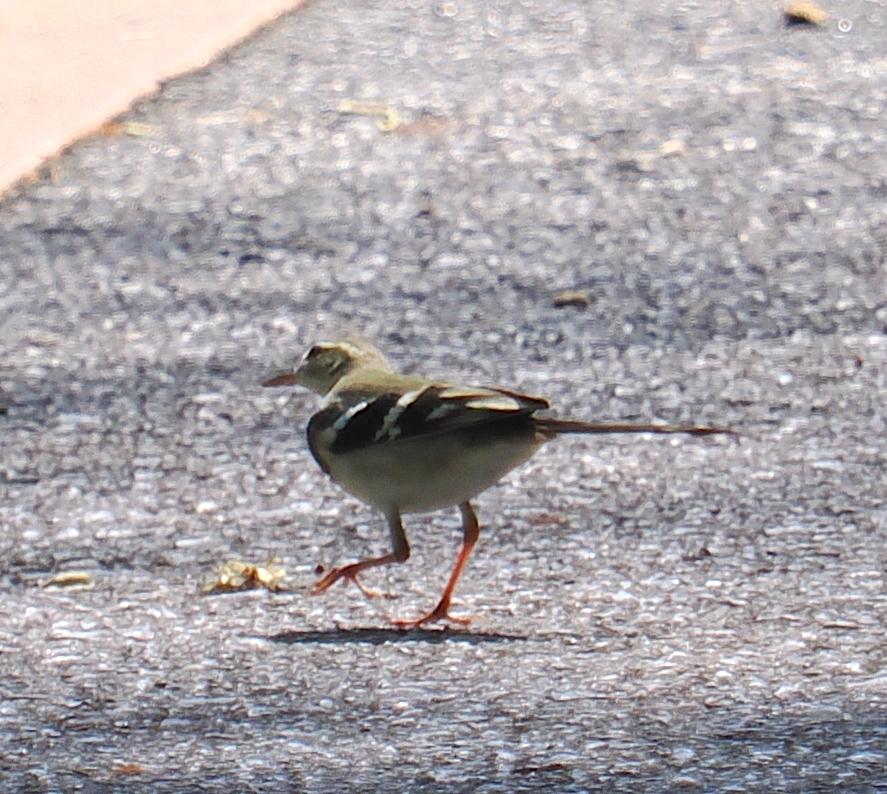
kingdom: Animalia
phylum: Chordata
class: Aves
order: Passeriformes
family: Motacillidae
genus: Dendronanthus
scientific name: Dendronanthus indicus
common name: Forest wagtail
